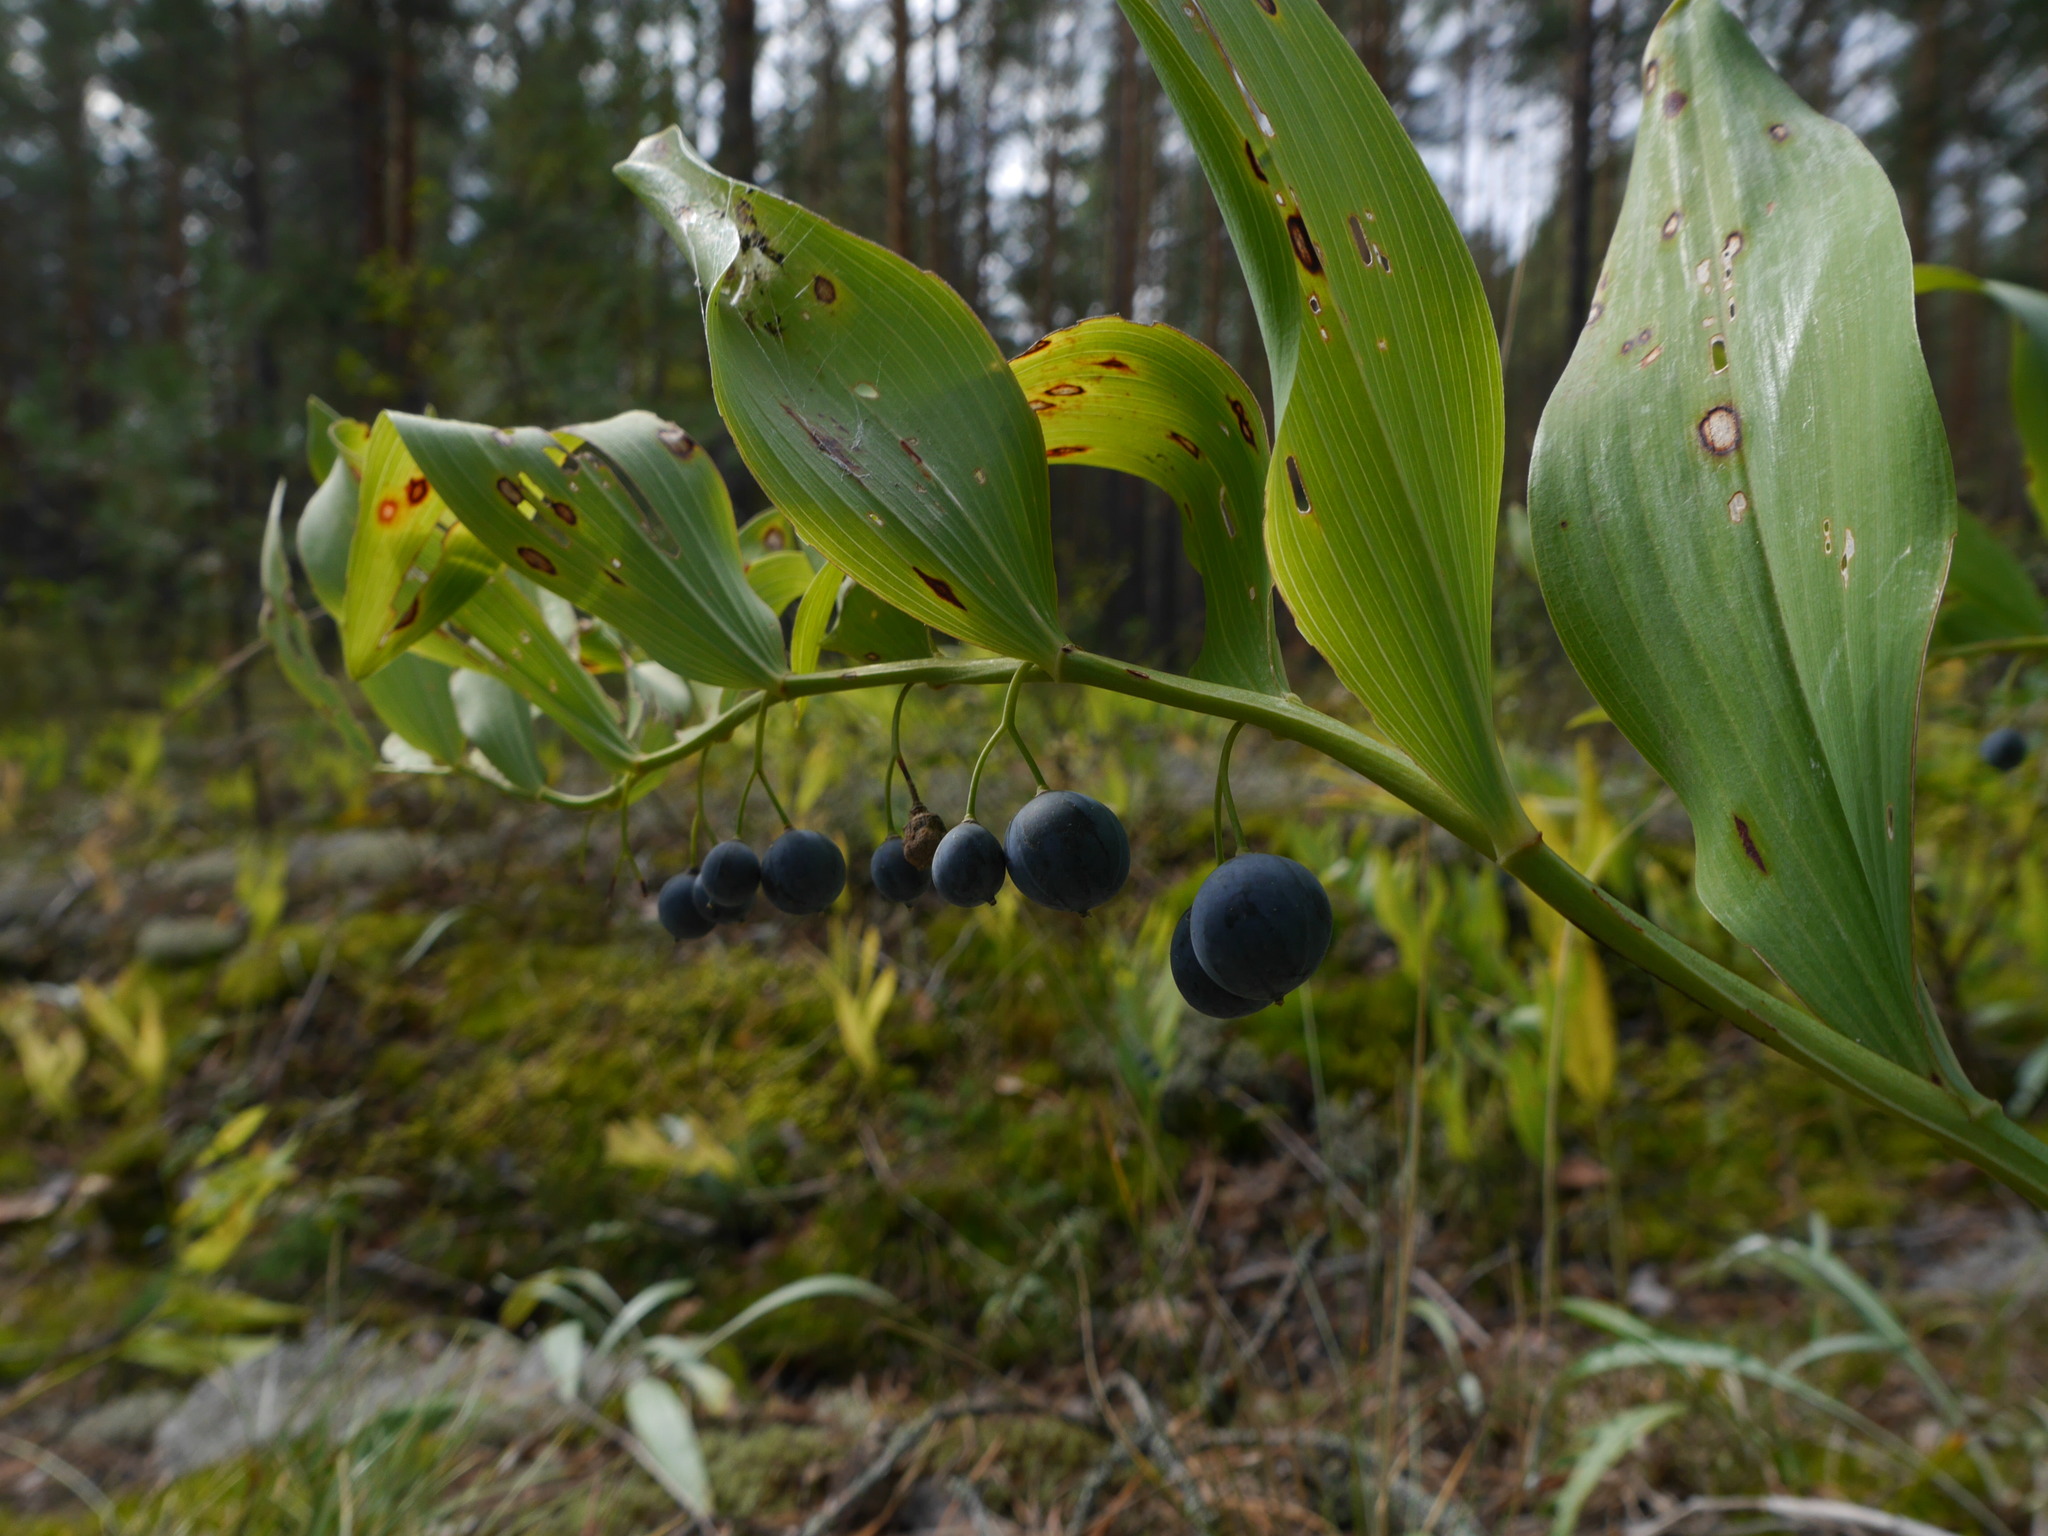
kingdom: Plantae
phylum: Tracheophyta
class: Liliopsida
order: Asparagales
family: Asparagaceae
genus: Polygonatum
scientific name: Polygonatum odoratum
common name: Angular solomon's-seal
